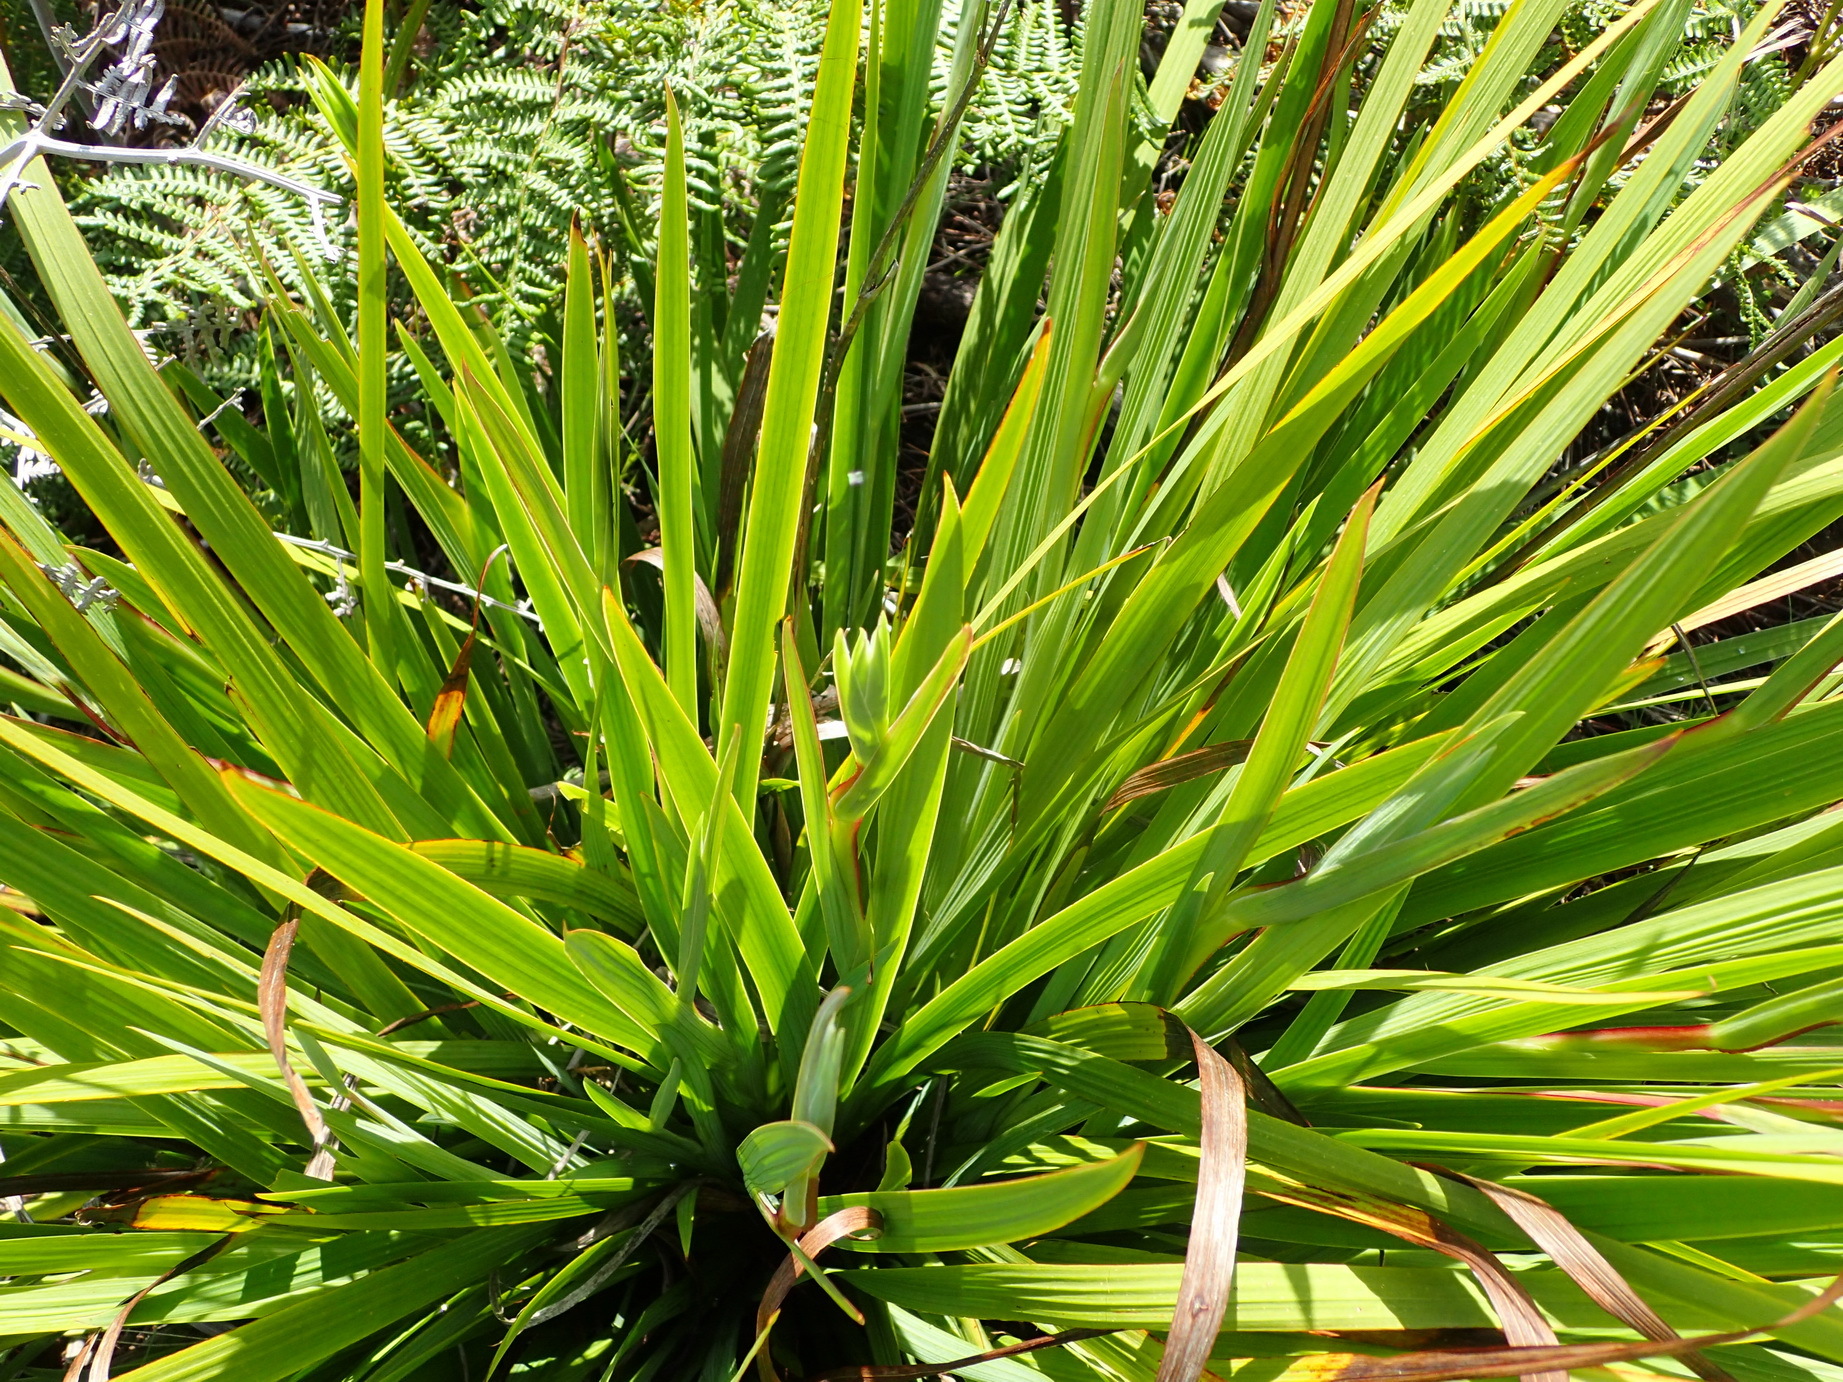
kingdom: Plantae
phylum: Tracheophyta
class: Liliopsida
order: Asparagales
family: Iridaceae
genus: Aristea
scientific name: Aristea ensifolia
